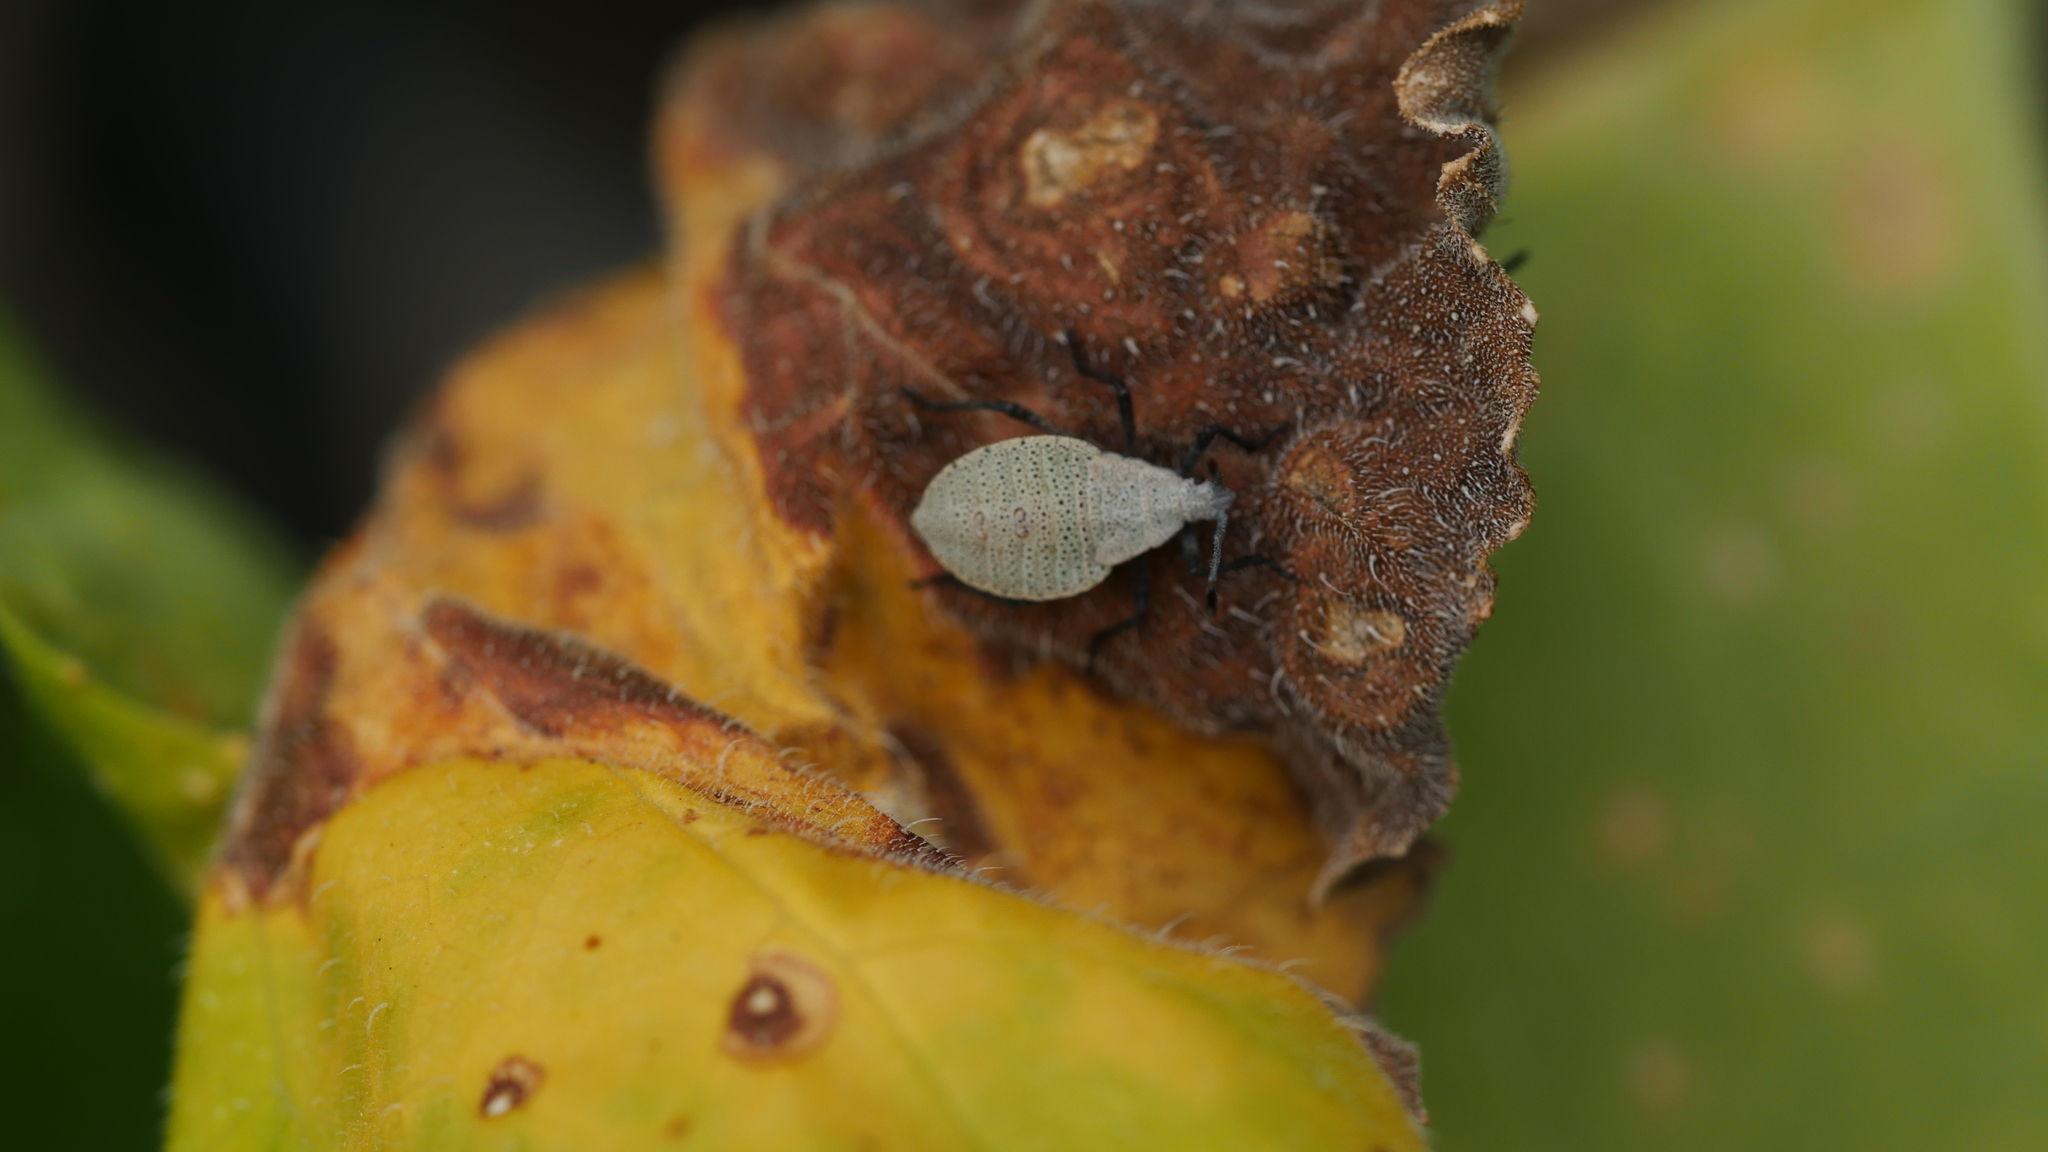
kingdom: Animalia
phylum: Arthropoda
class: Insecta
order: Hemiptera
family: Coreidae
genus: Anasa
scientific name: Anasa tristis
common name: Squash bug
